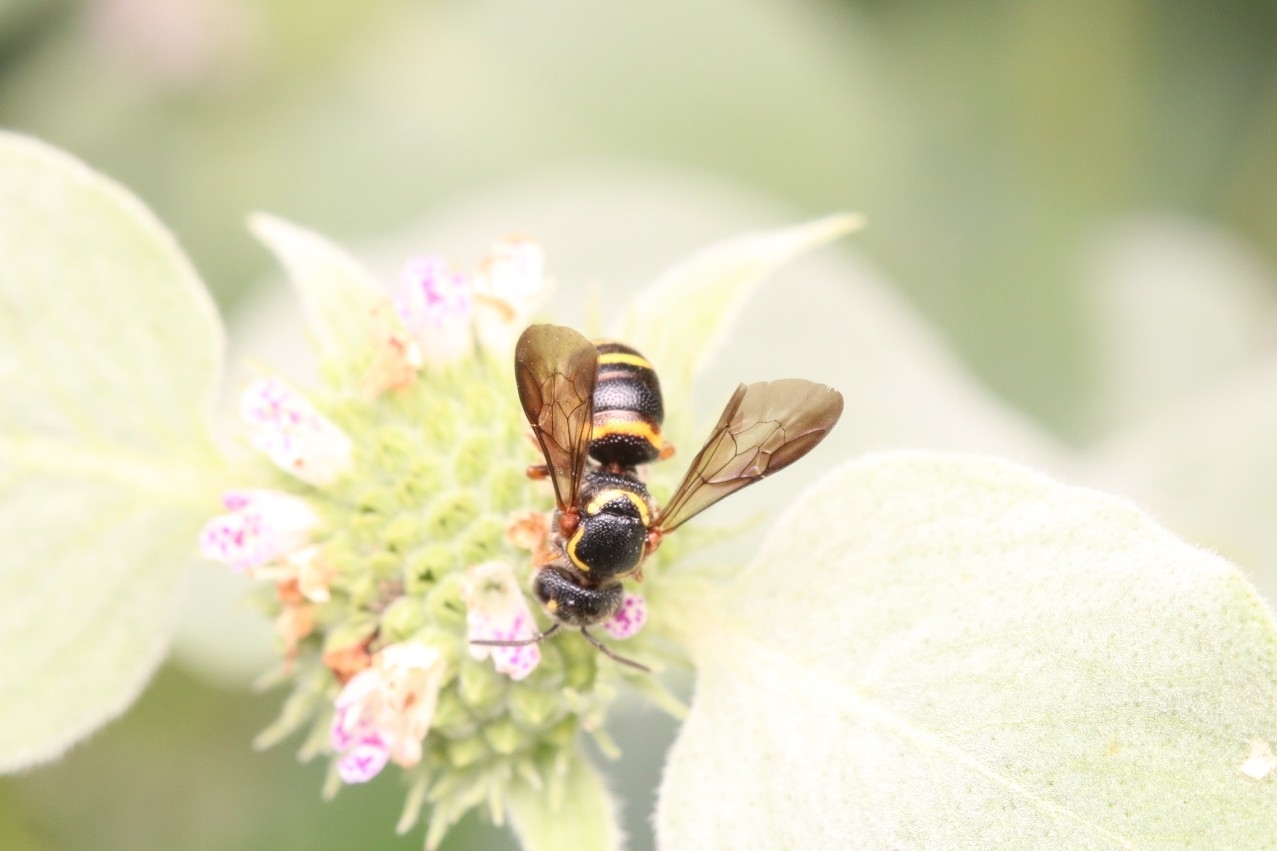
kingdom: Animalia
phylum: Arthropoda
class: Insecta
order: Hymenoptera
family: Megachilidae
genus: Stelis
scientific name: Stelis louisae
